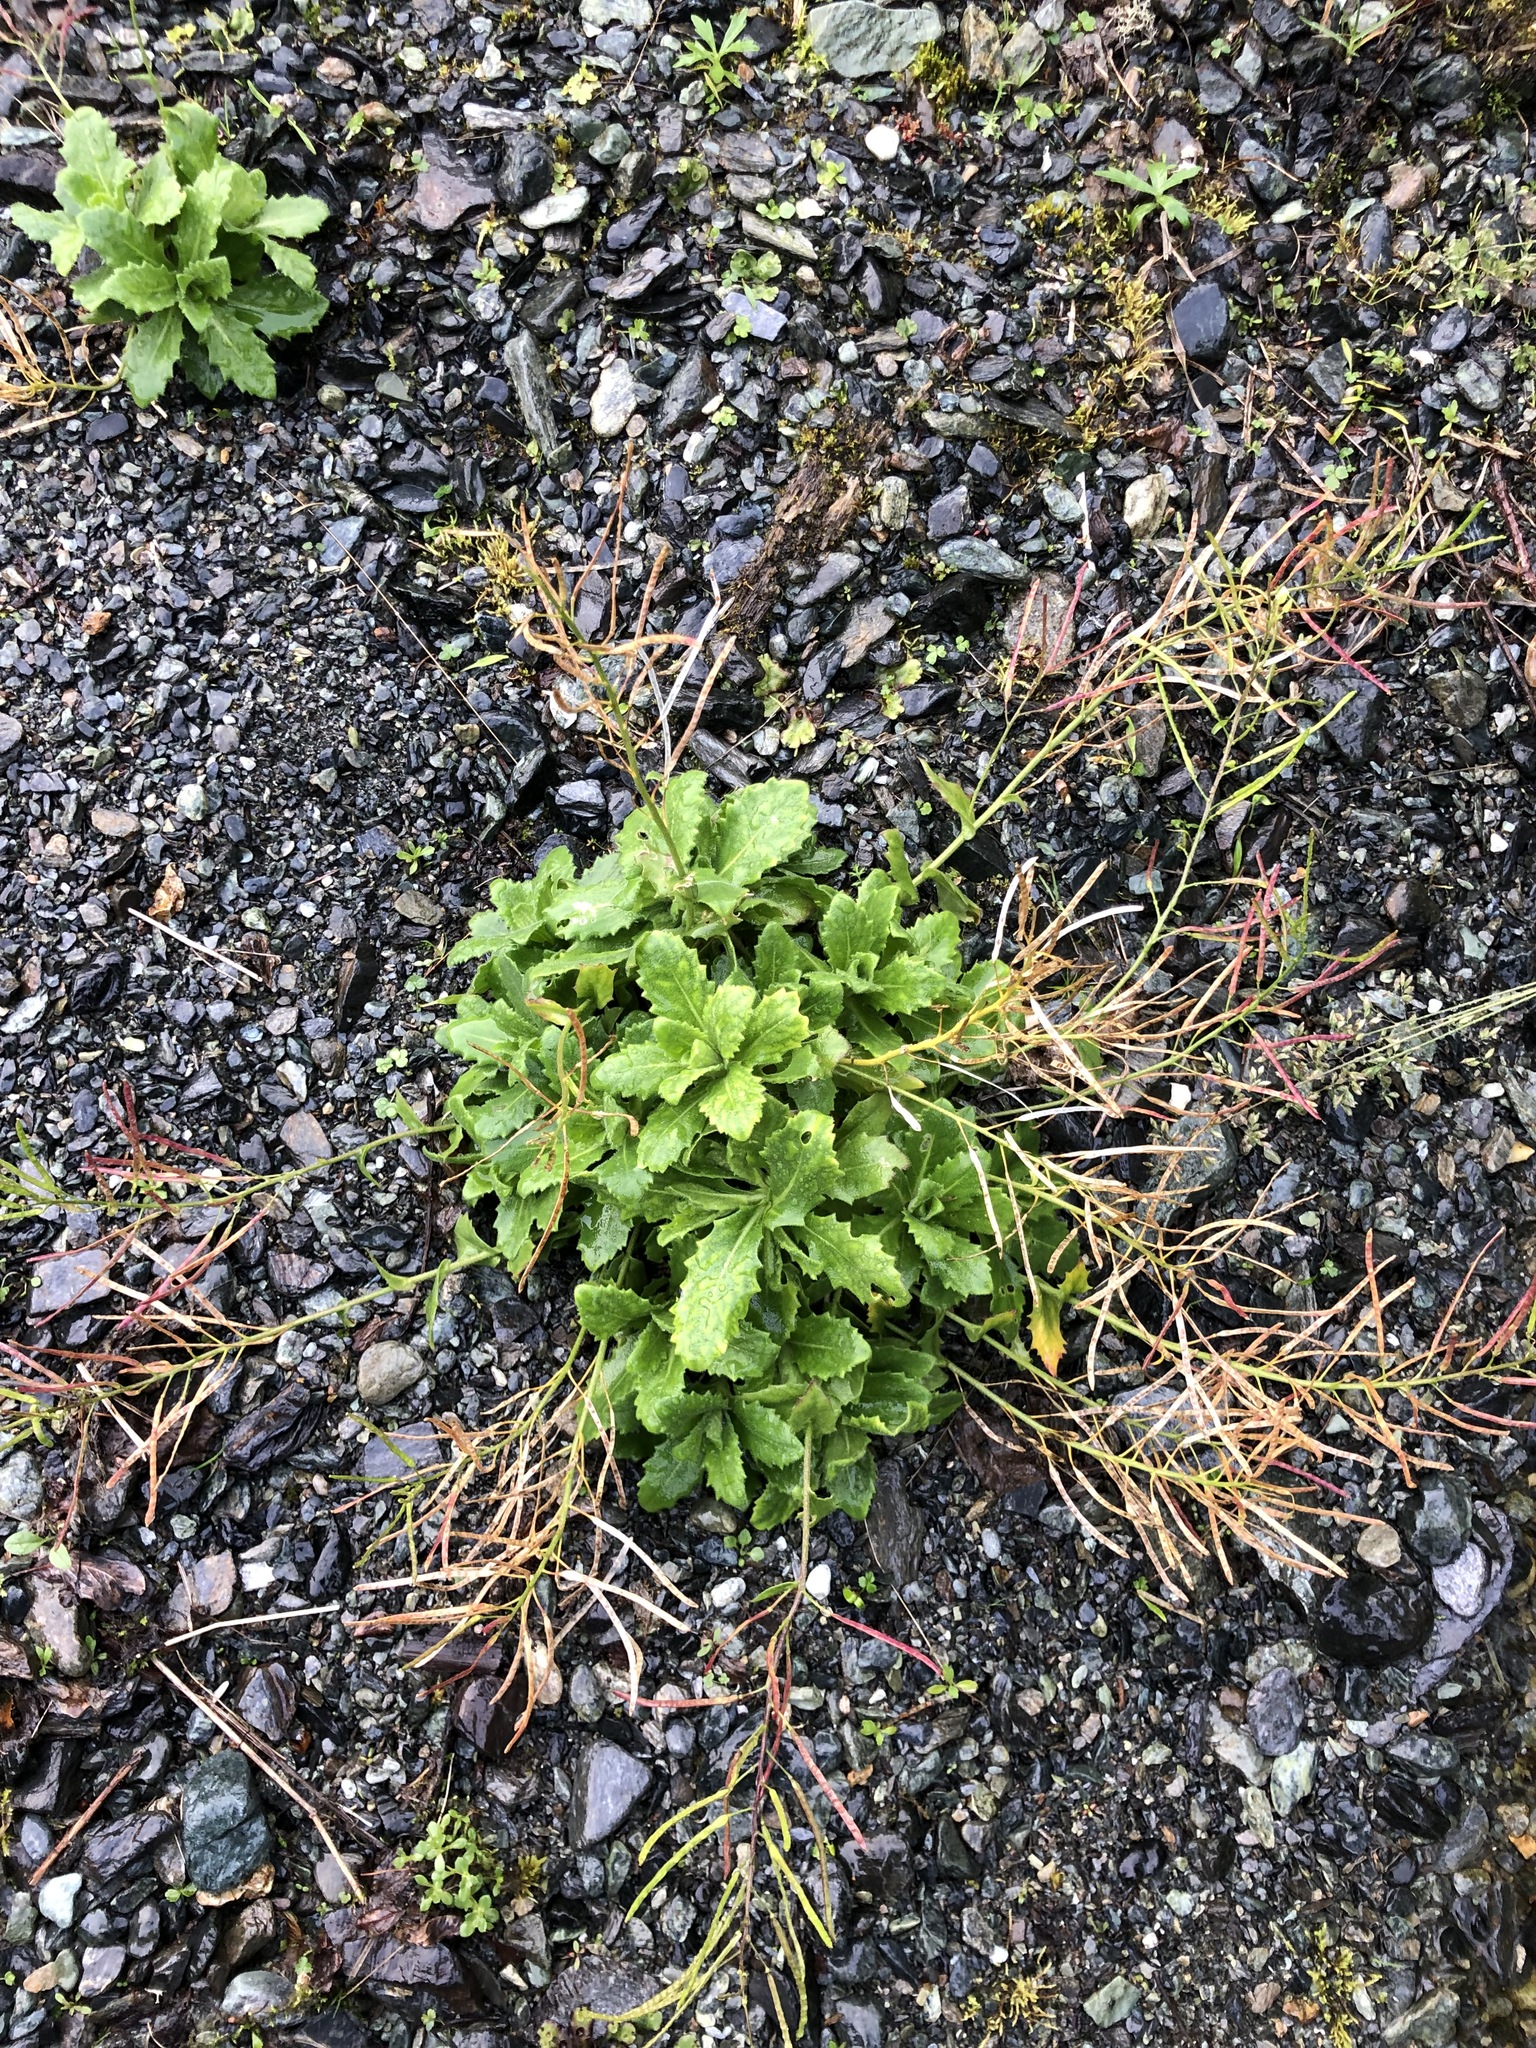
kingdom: Plantae
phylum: Tracheophyta
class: Magnoliopsida
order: Brassicales
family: Brassicaceae
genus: Arabis
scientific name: Arabis alpina
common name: Alpine rock-cress
